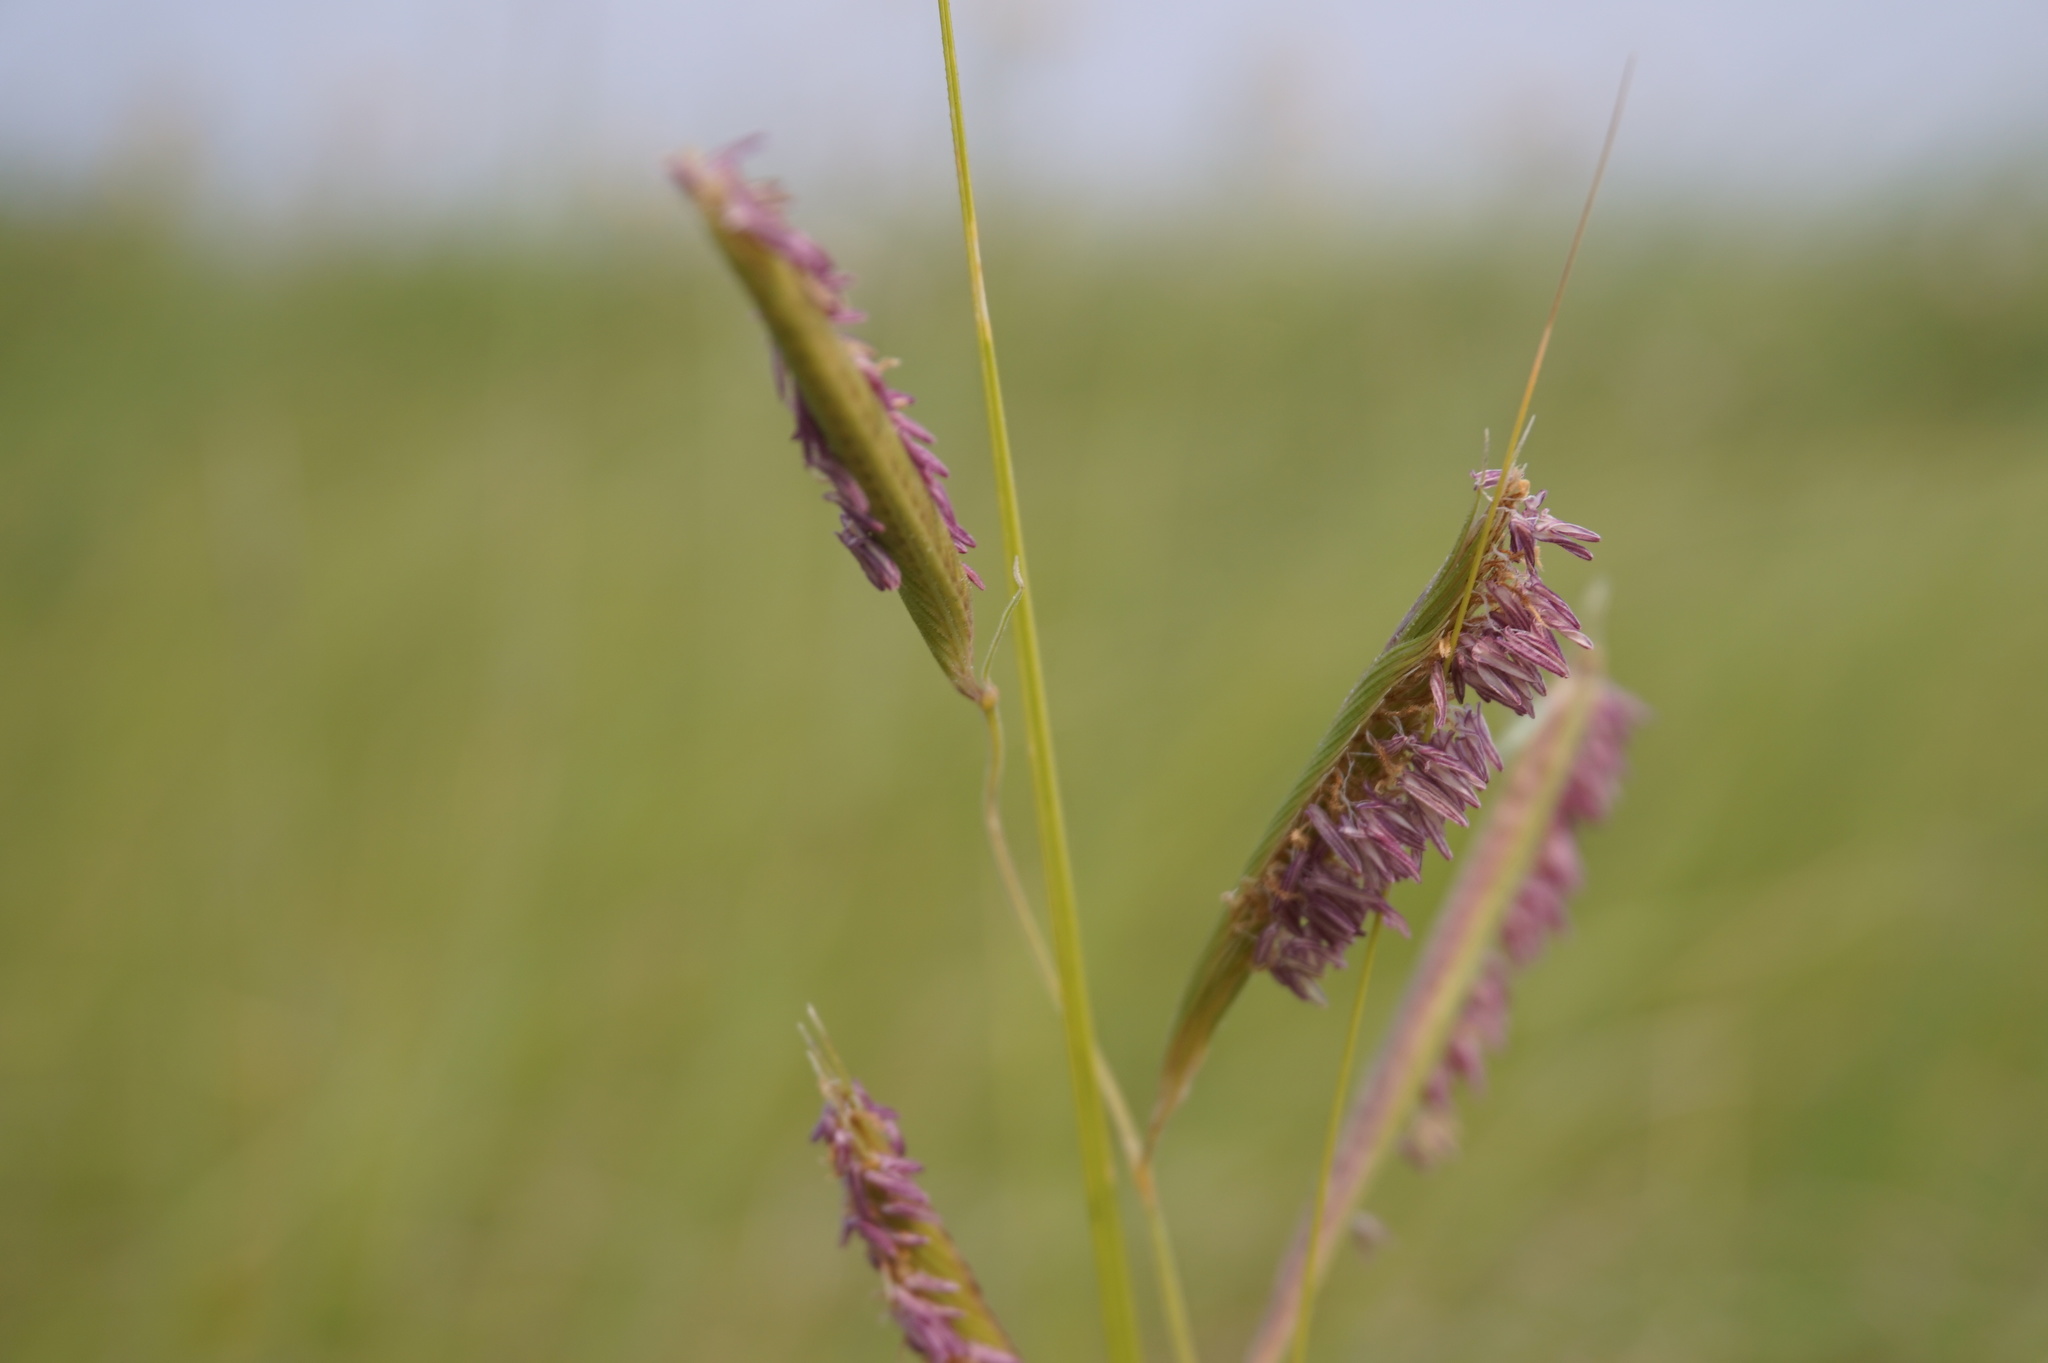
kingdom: Plantae
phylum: Tracheophyta
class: Liliopsida
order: Poales
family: Poaceae
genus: Sporobolus
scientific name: Sporobolus michauxianus
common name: Freshwater cordgrass
